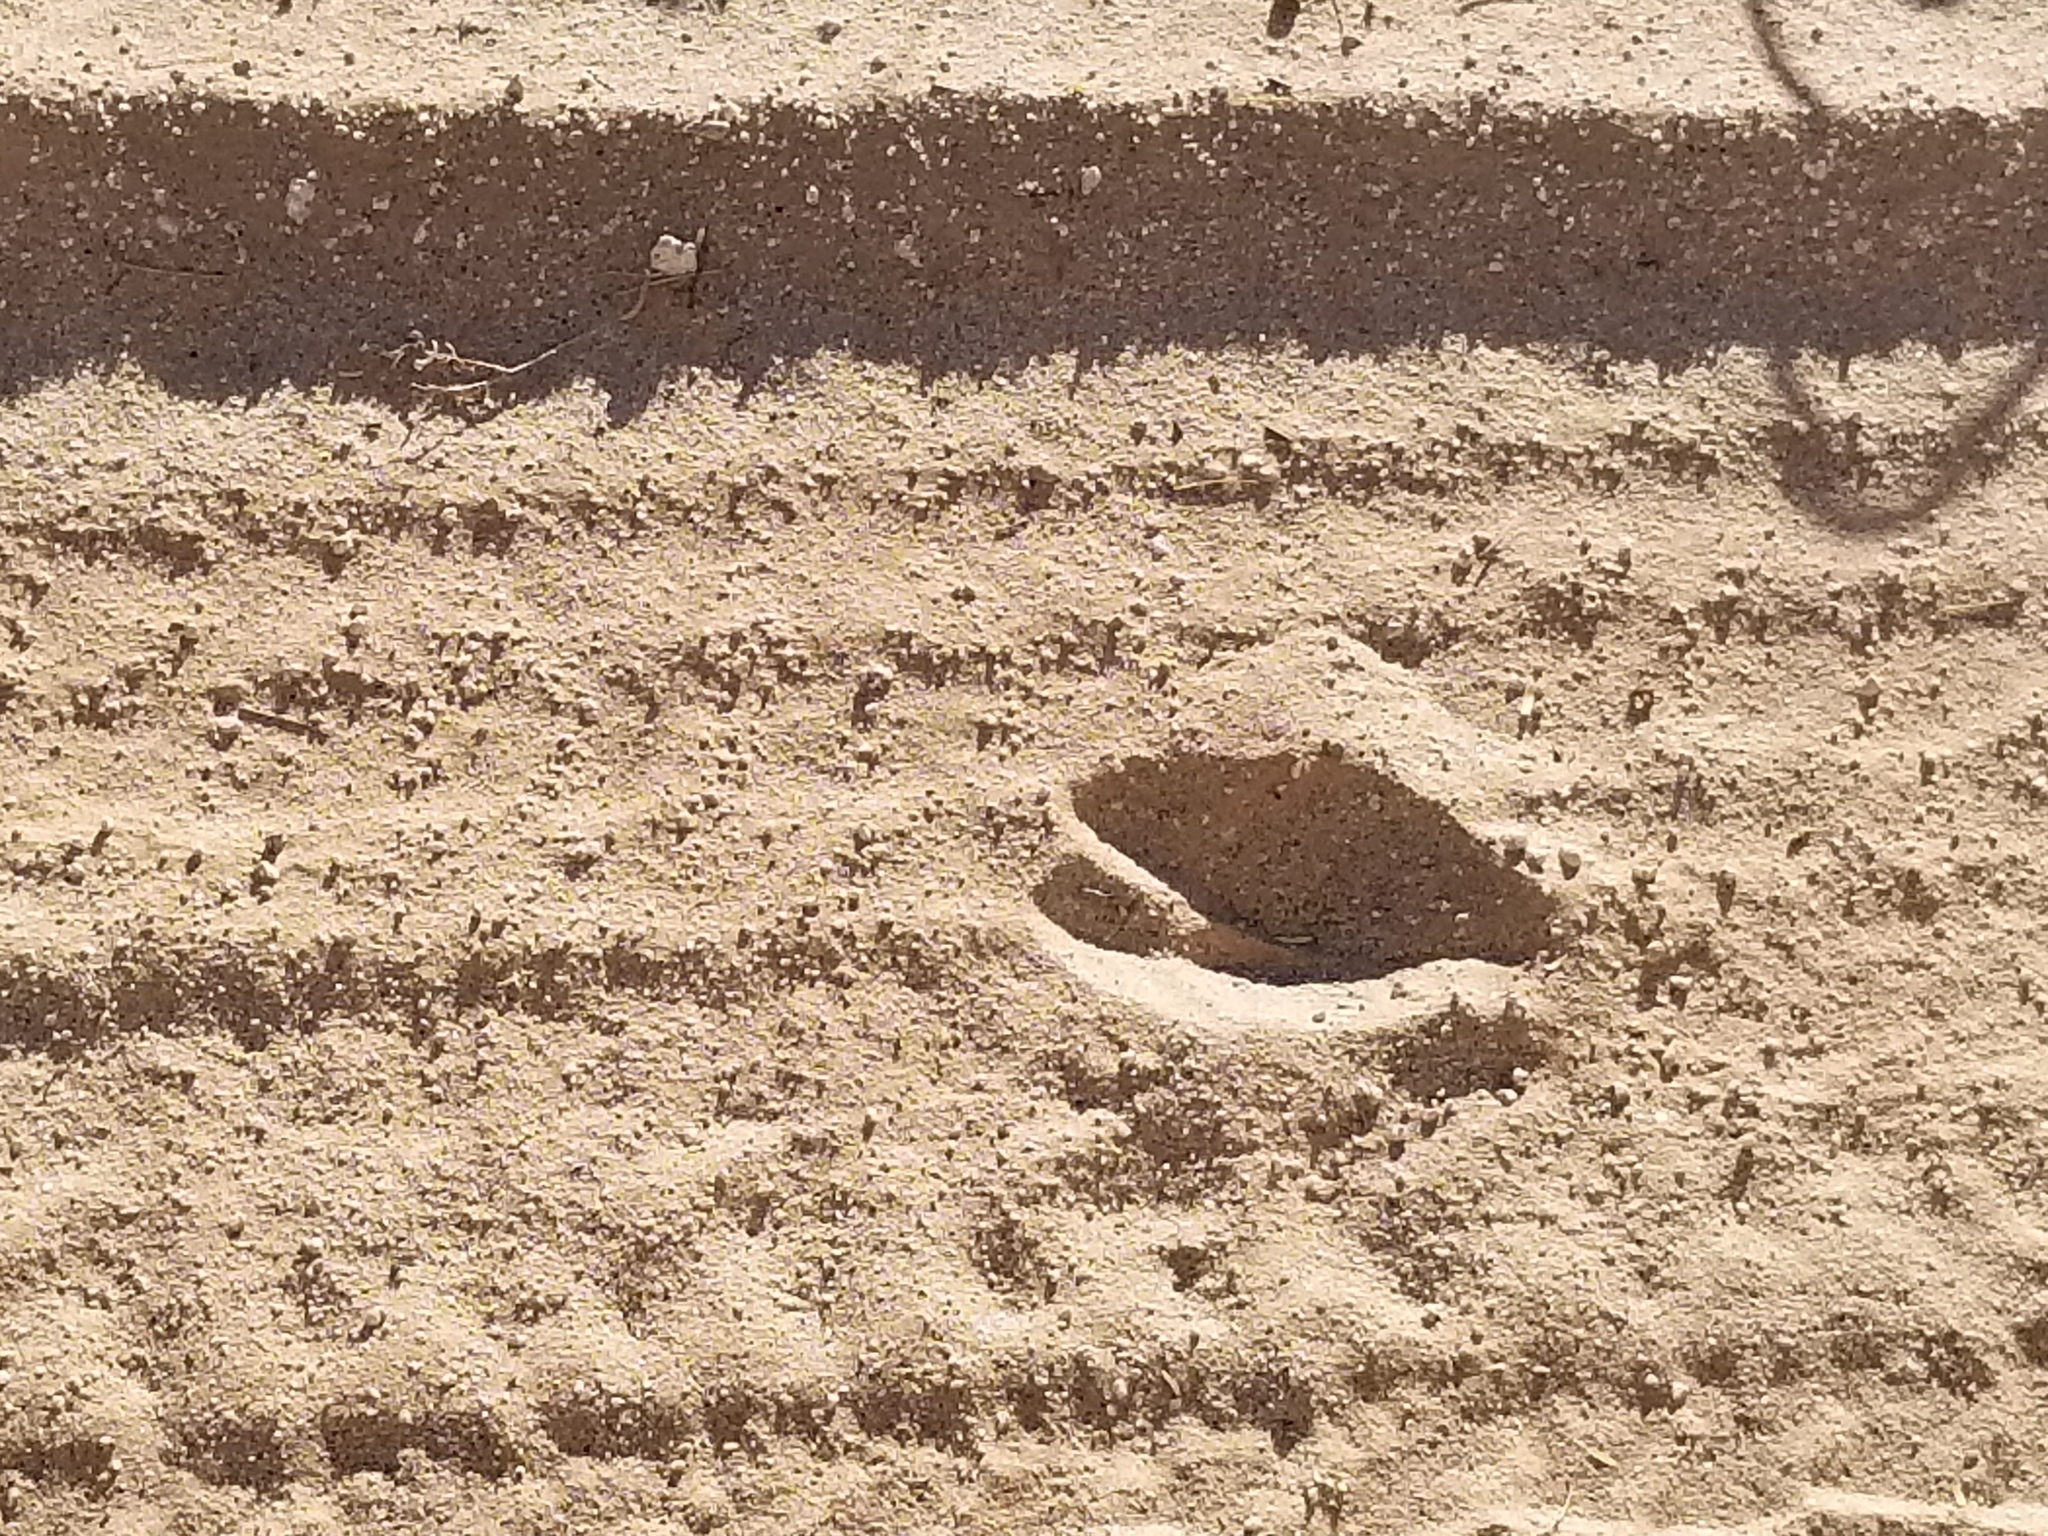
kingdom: Animalia
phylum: Chordata
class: Mammalia
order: Artiodactyla
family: Cervidae
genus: Odocoileus
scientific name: Odocoileus hemionus
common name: Mule deer
